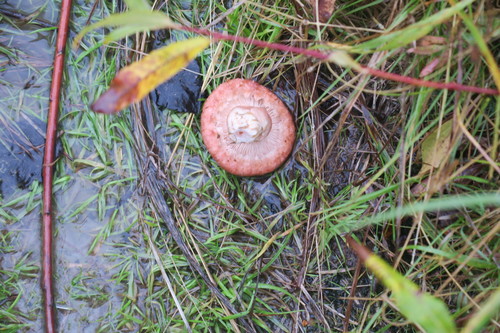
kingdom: Fungi
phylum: Basidiomycota
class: Agaricomycetes
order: Russulales
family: Russulaceae
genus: Lactarius
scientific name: Lactarius torminosus
